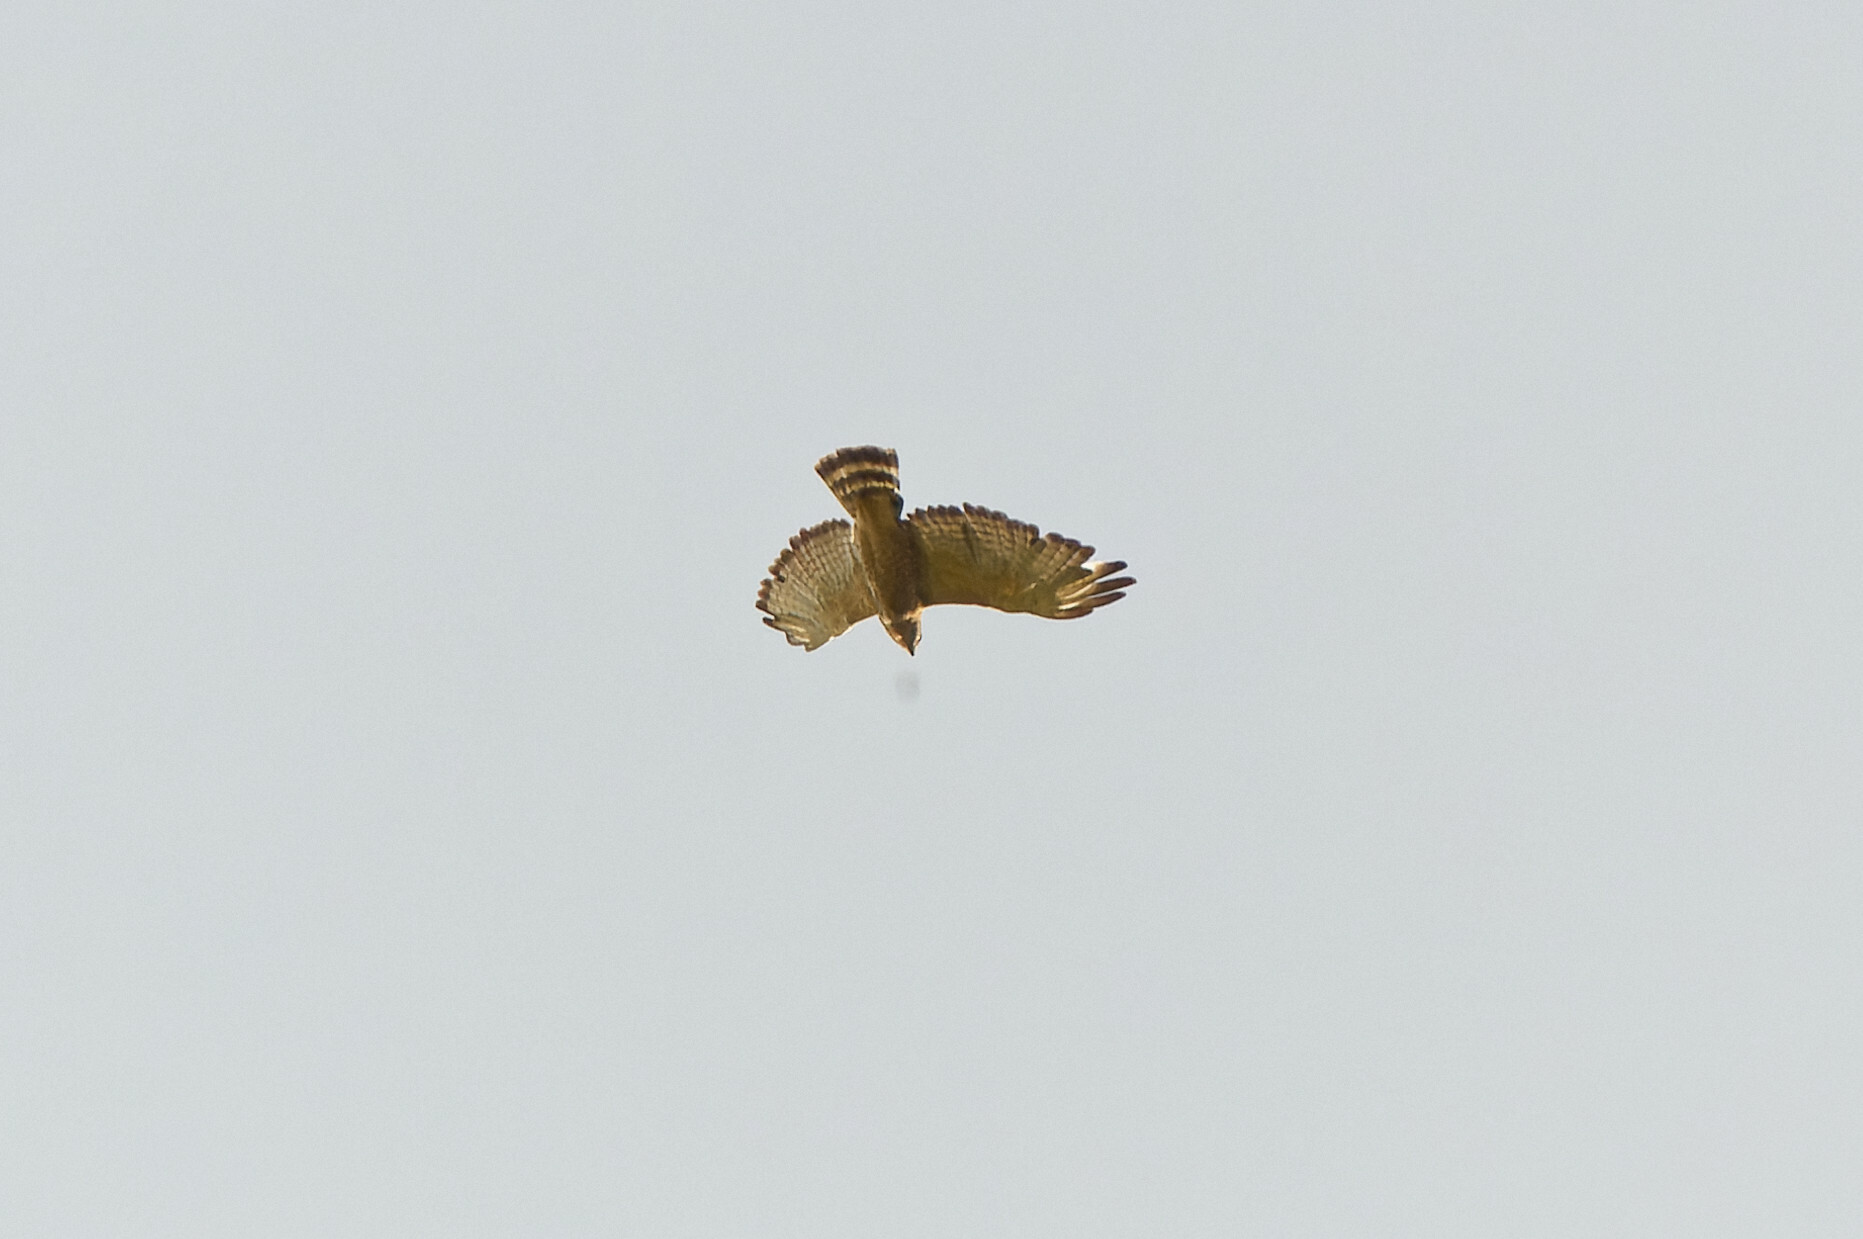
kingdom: Animalia
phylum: Chordata
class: Aves
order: Accipitriformes
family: Accipitridae
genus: Buteo
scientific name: Buteo platypterus
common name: Broad-winged hawk
